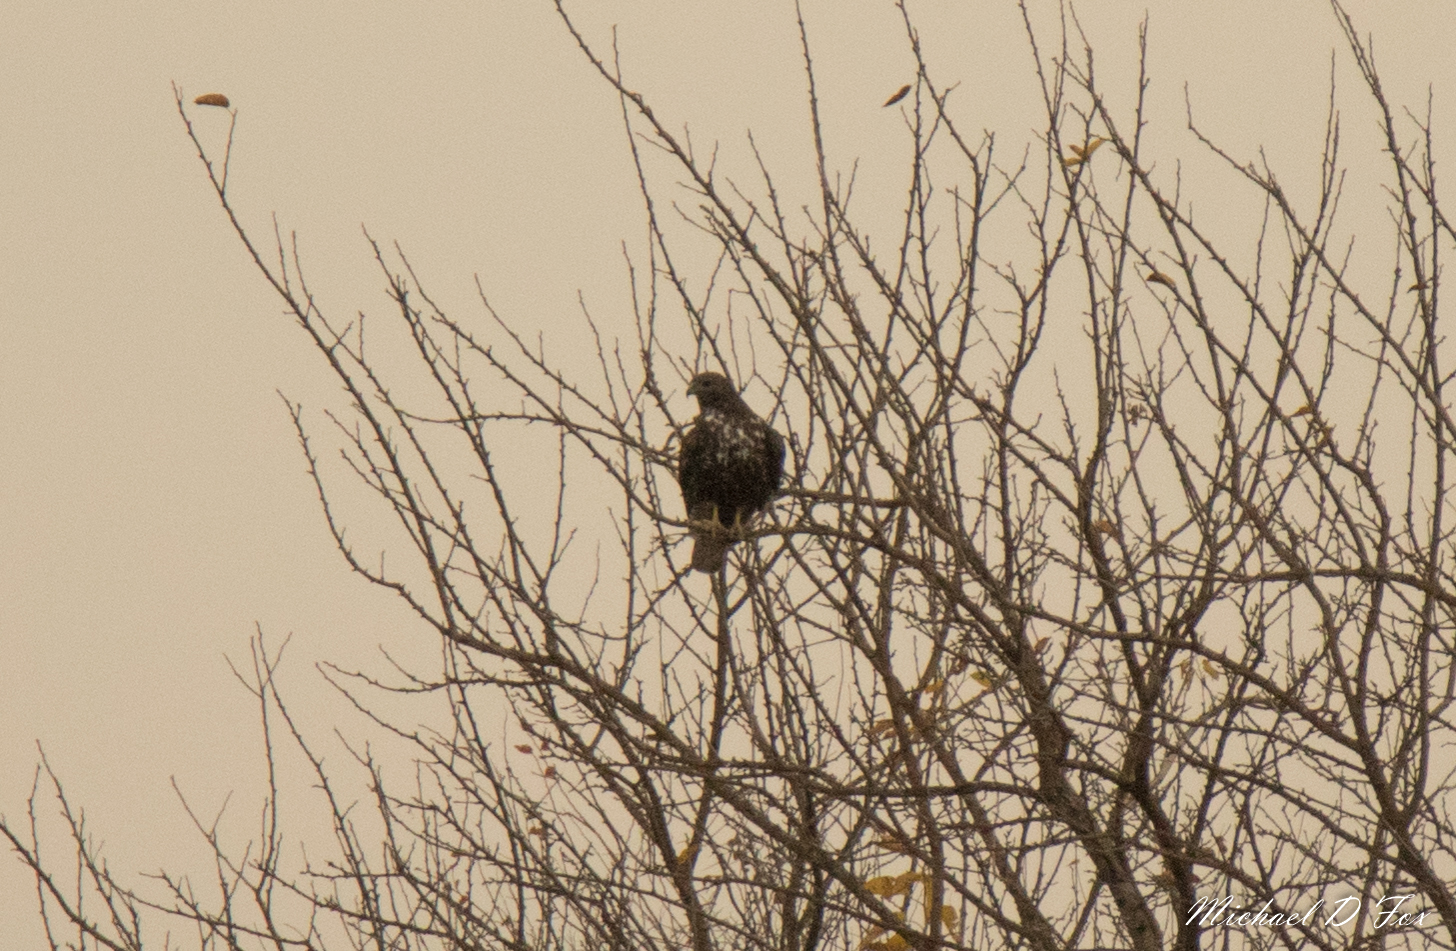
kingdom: Animalia
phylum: Chordata
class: Aves
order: Accipitriformes
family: Accipitridae
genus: Buteo
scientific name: Buteo jamaicensis
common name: Red-tailed hawk
